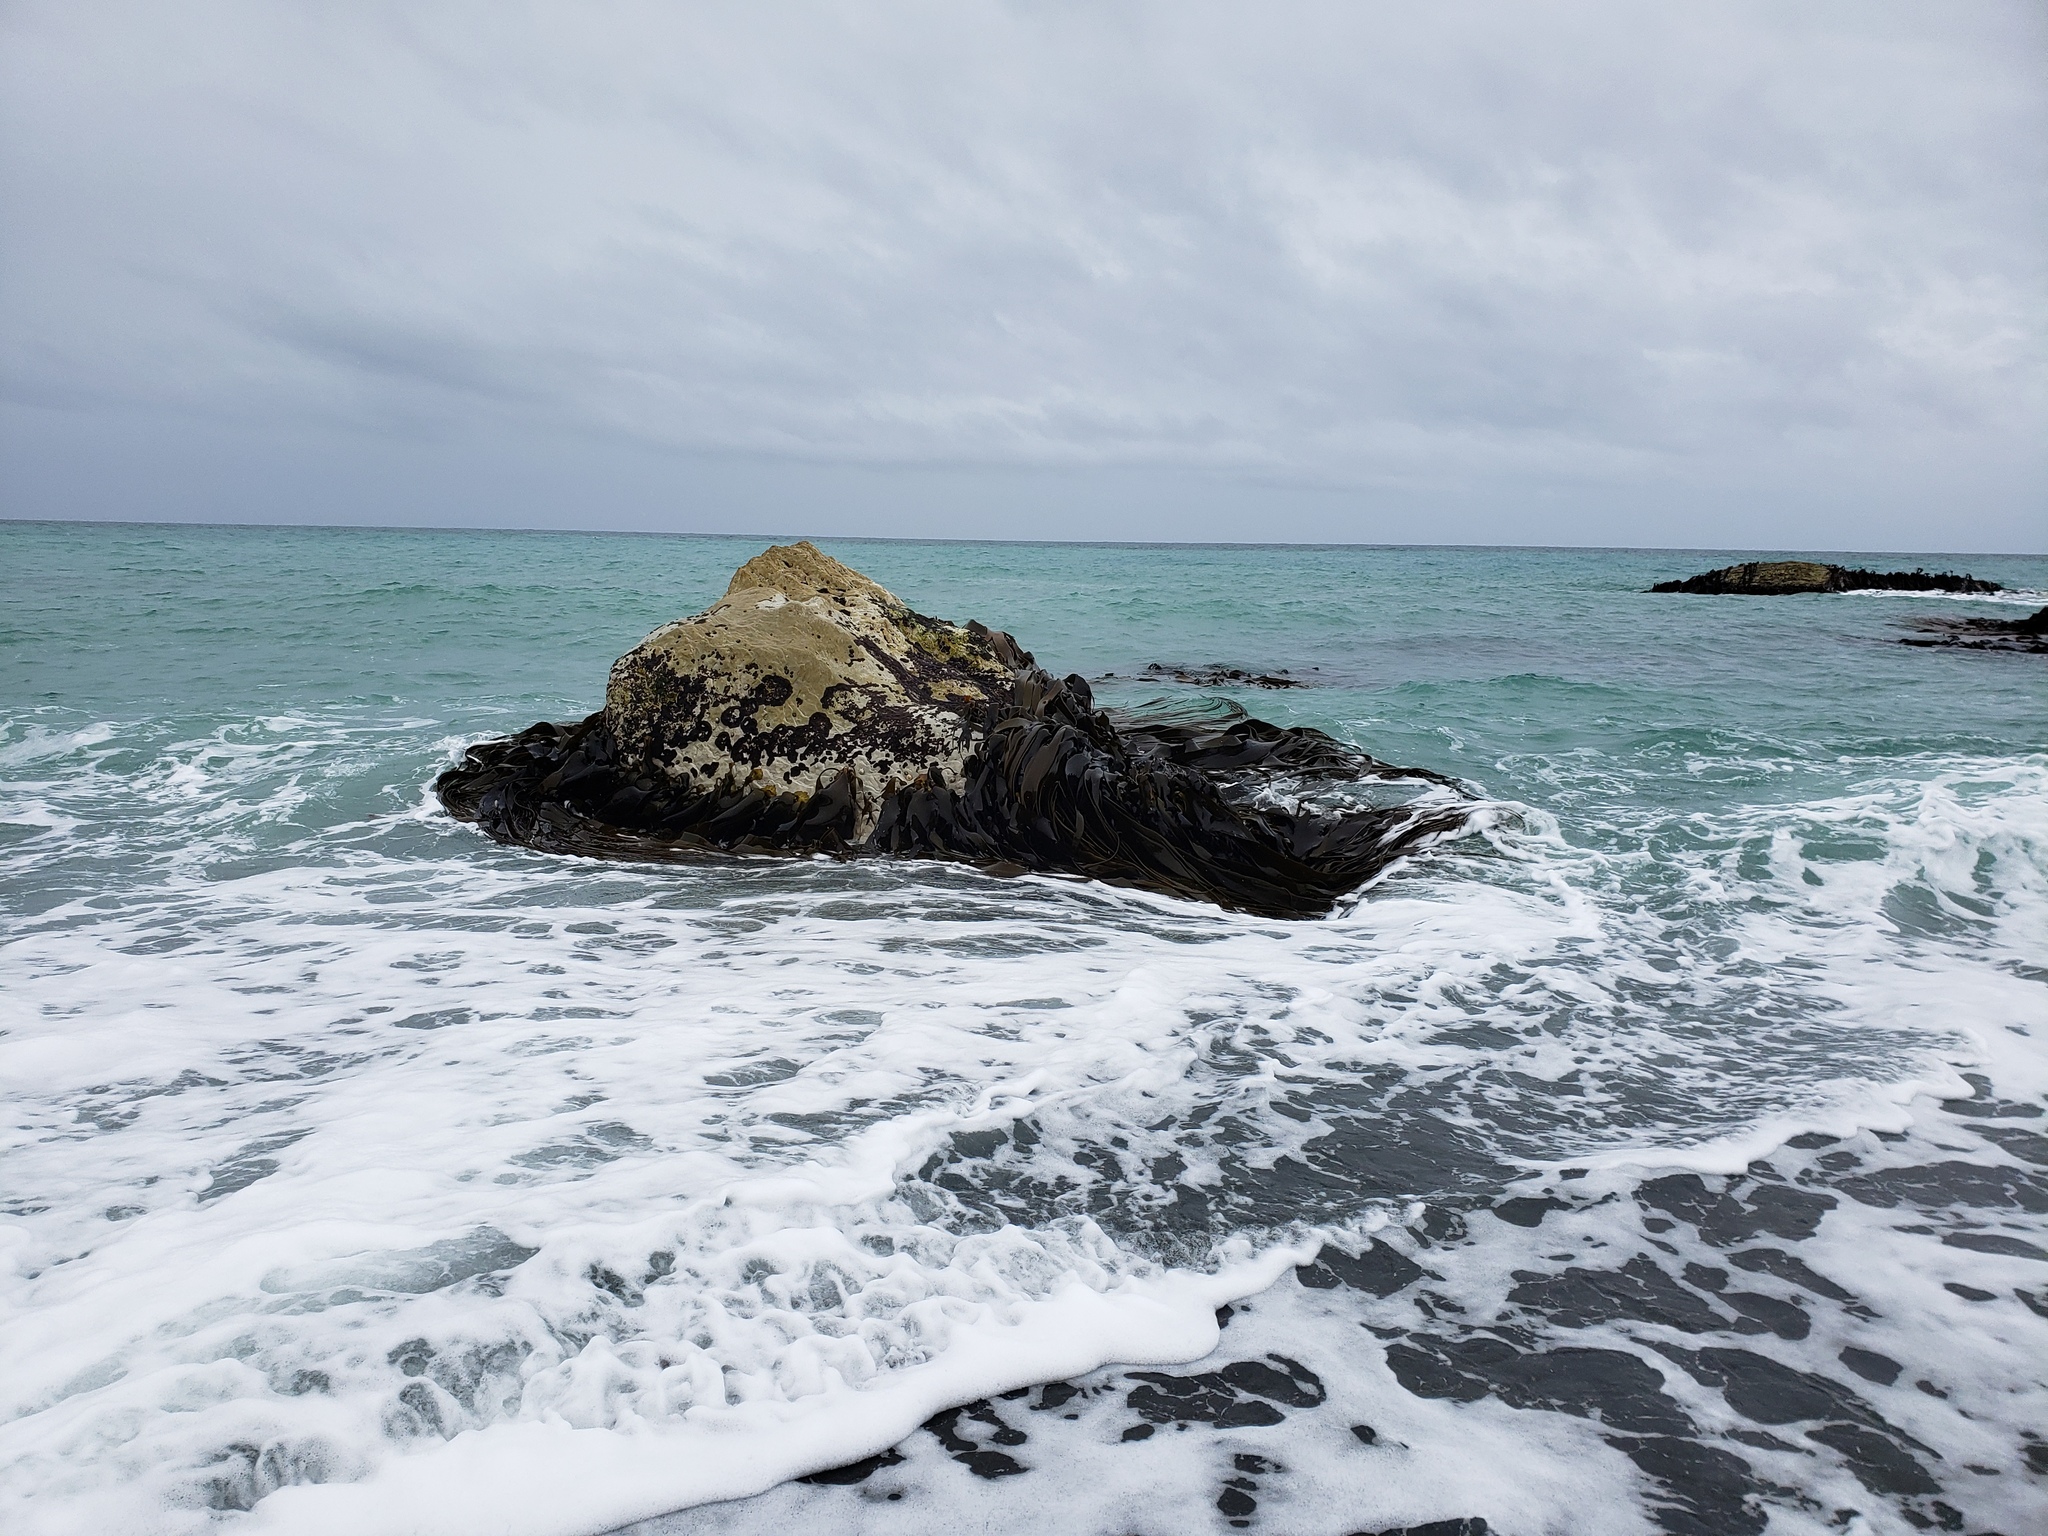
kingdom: Chromista
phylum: Ochrophyta
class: Phaeophyceae
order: Fucales
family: Durvillaeaceae
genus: Durvillaea
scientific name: Durvillaea antarctica
